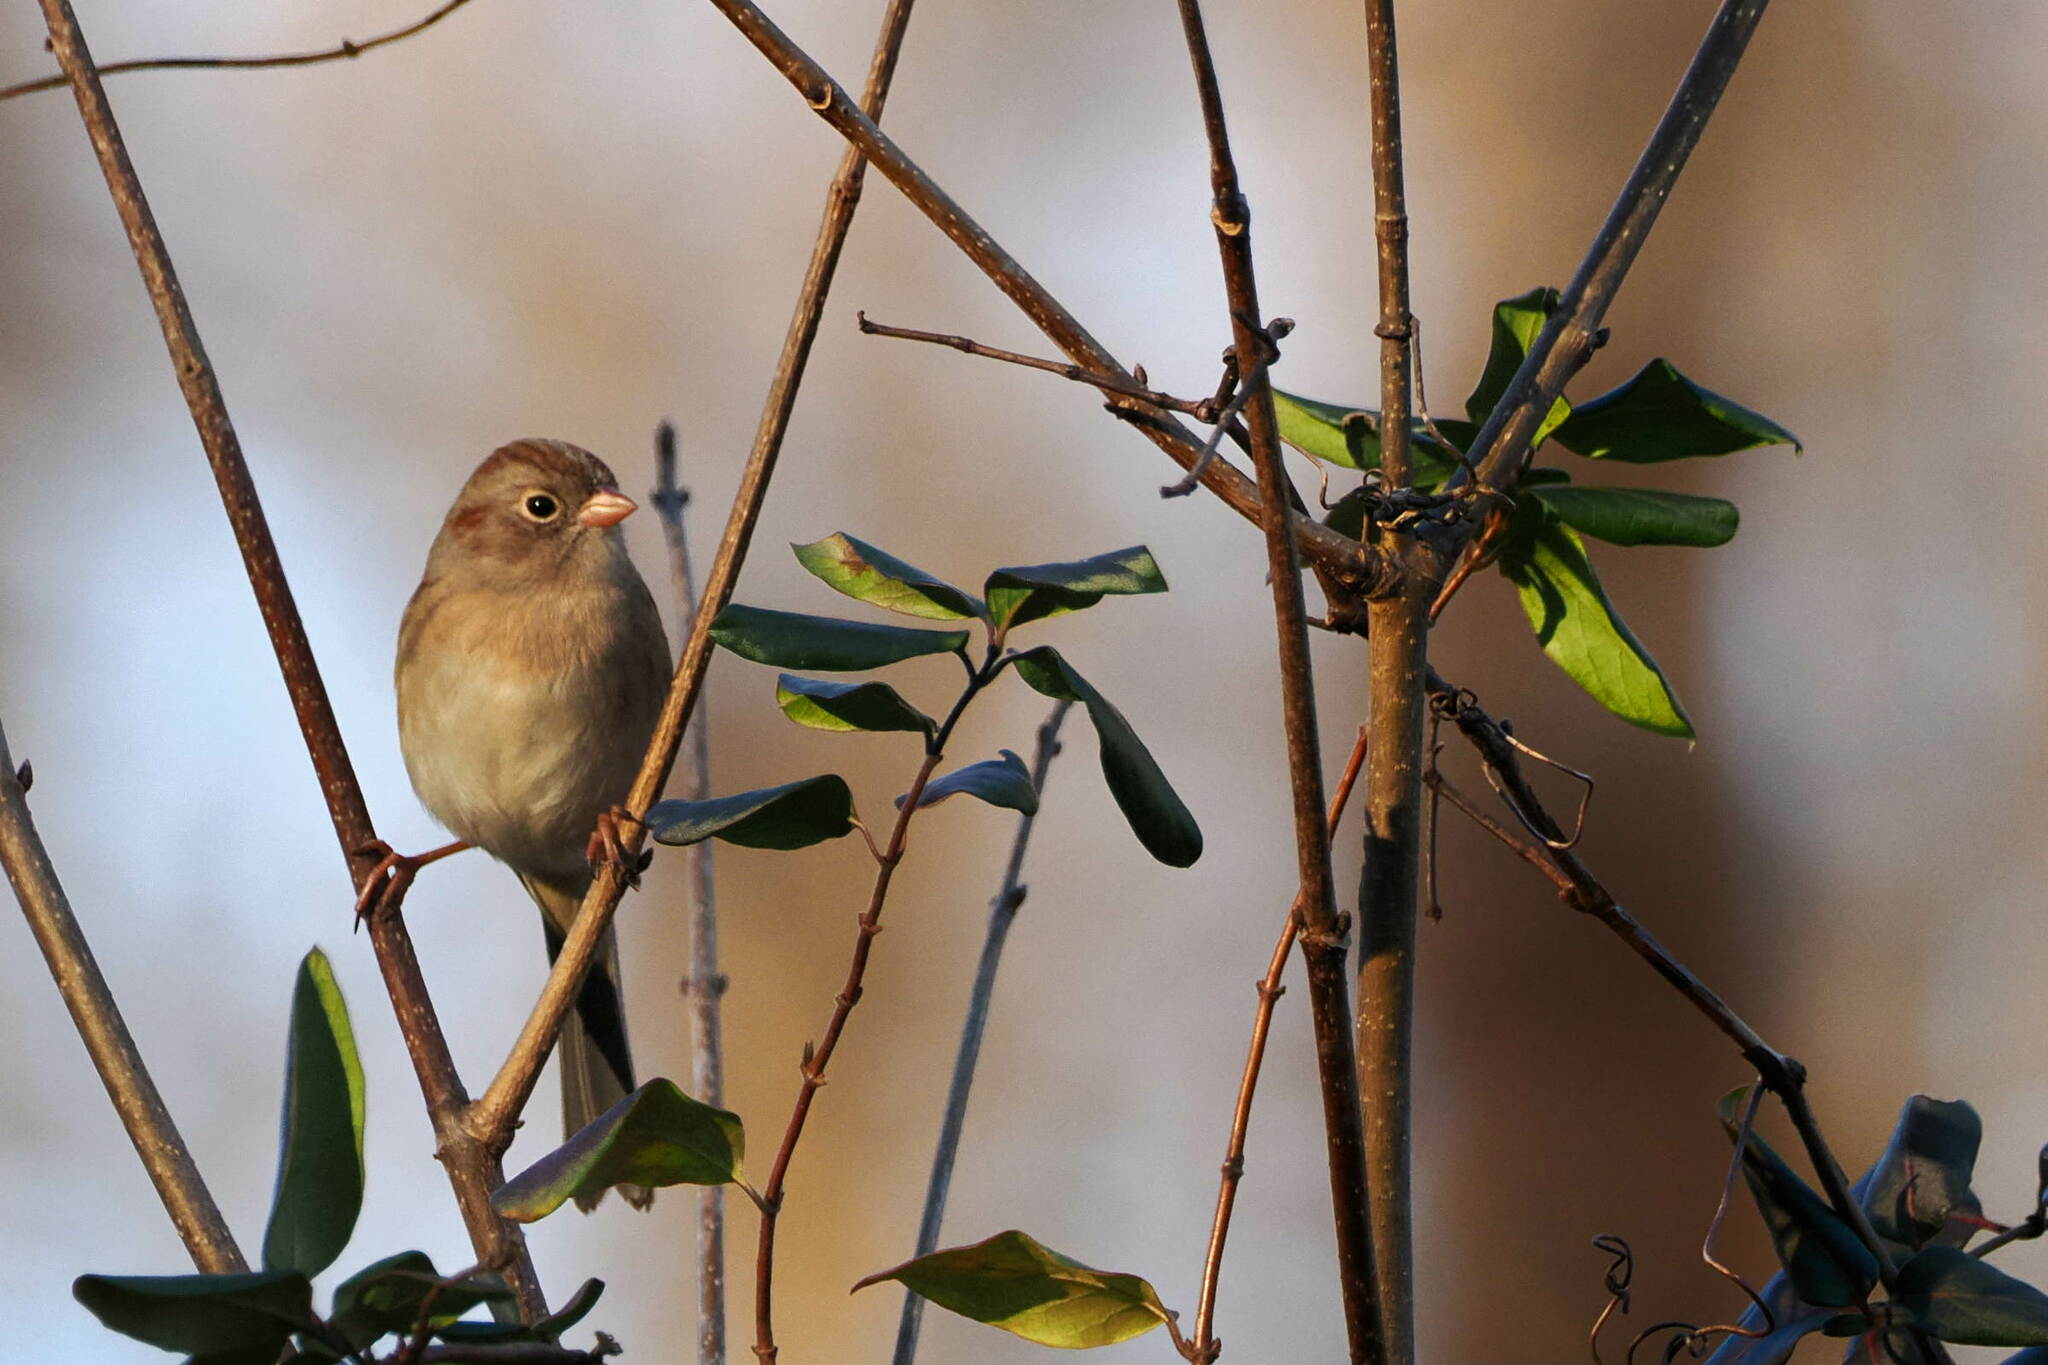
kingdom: Animalia
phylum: Chordata
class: Aves
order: Passeriformes
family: Passerellidae
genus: Spizella
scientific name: Spizella pusilla
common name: Field sparrow
